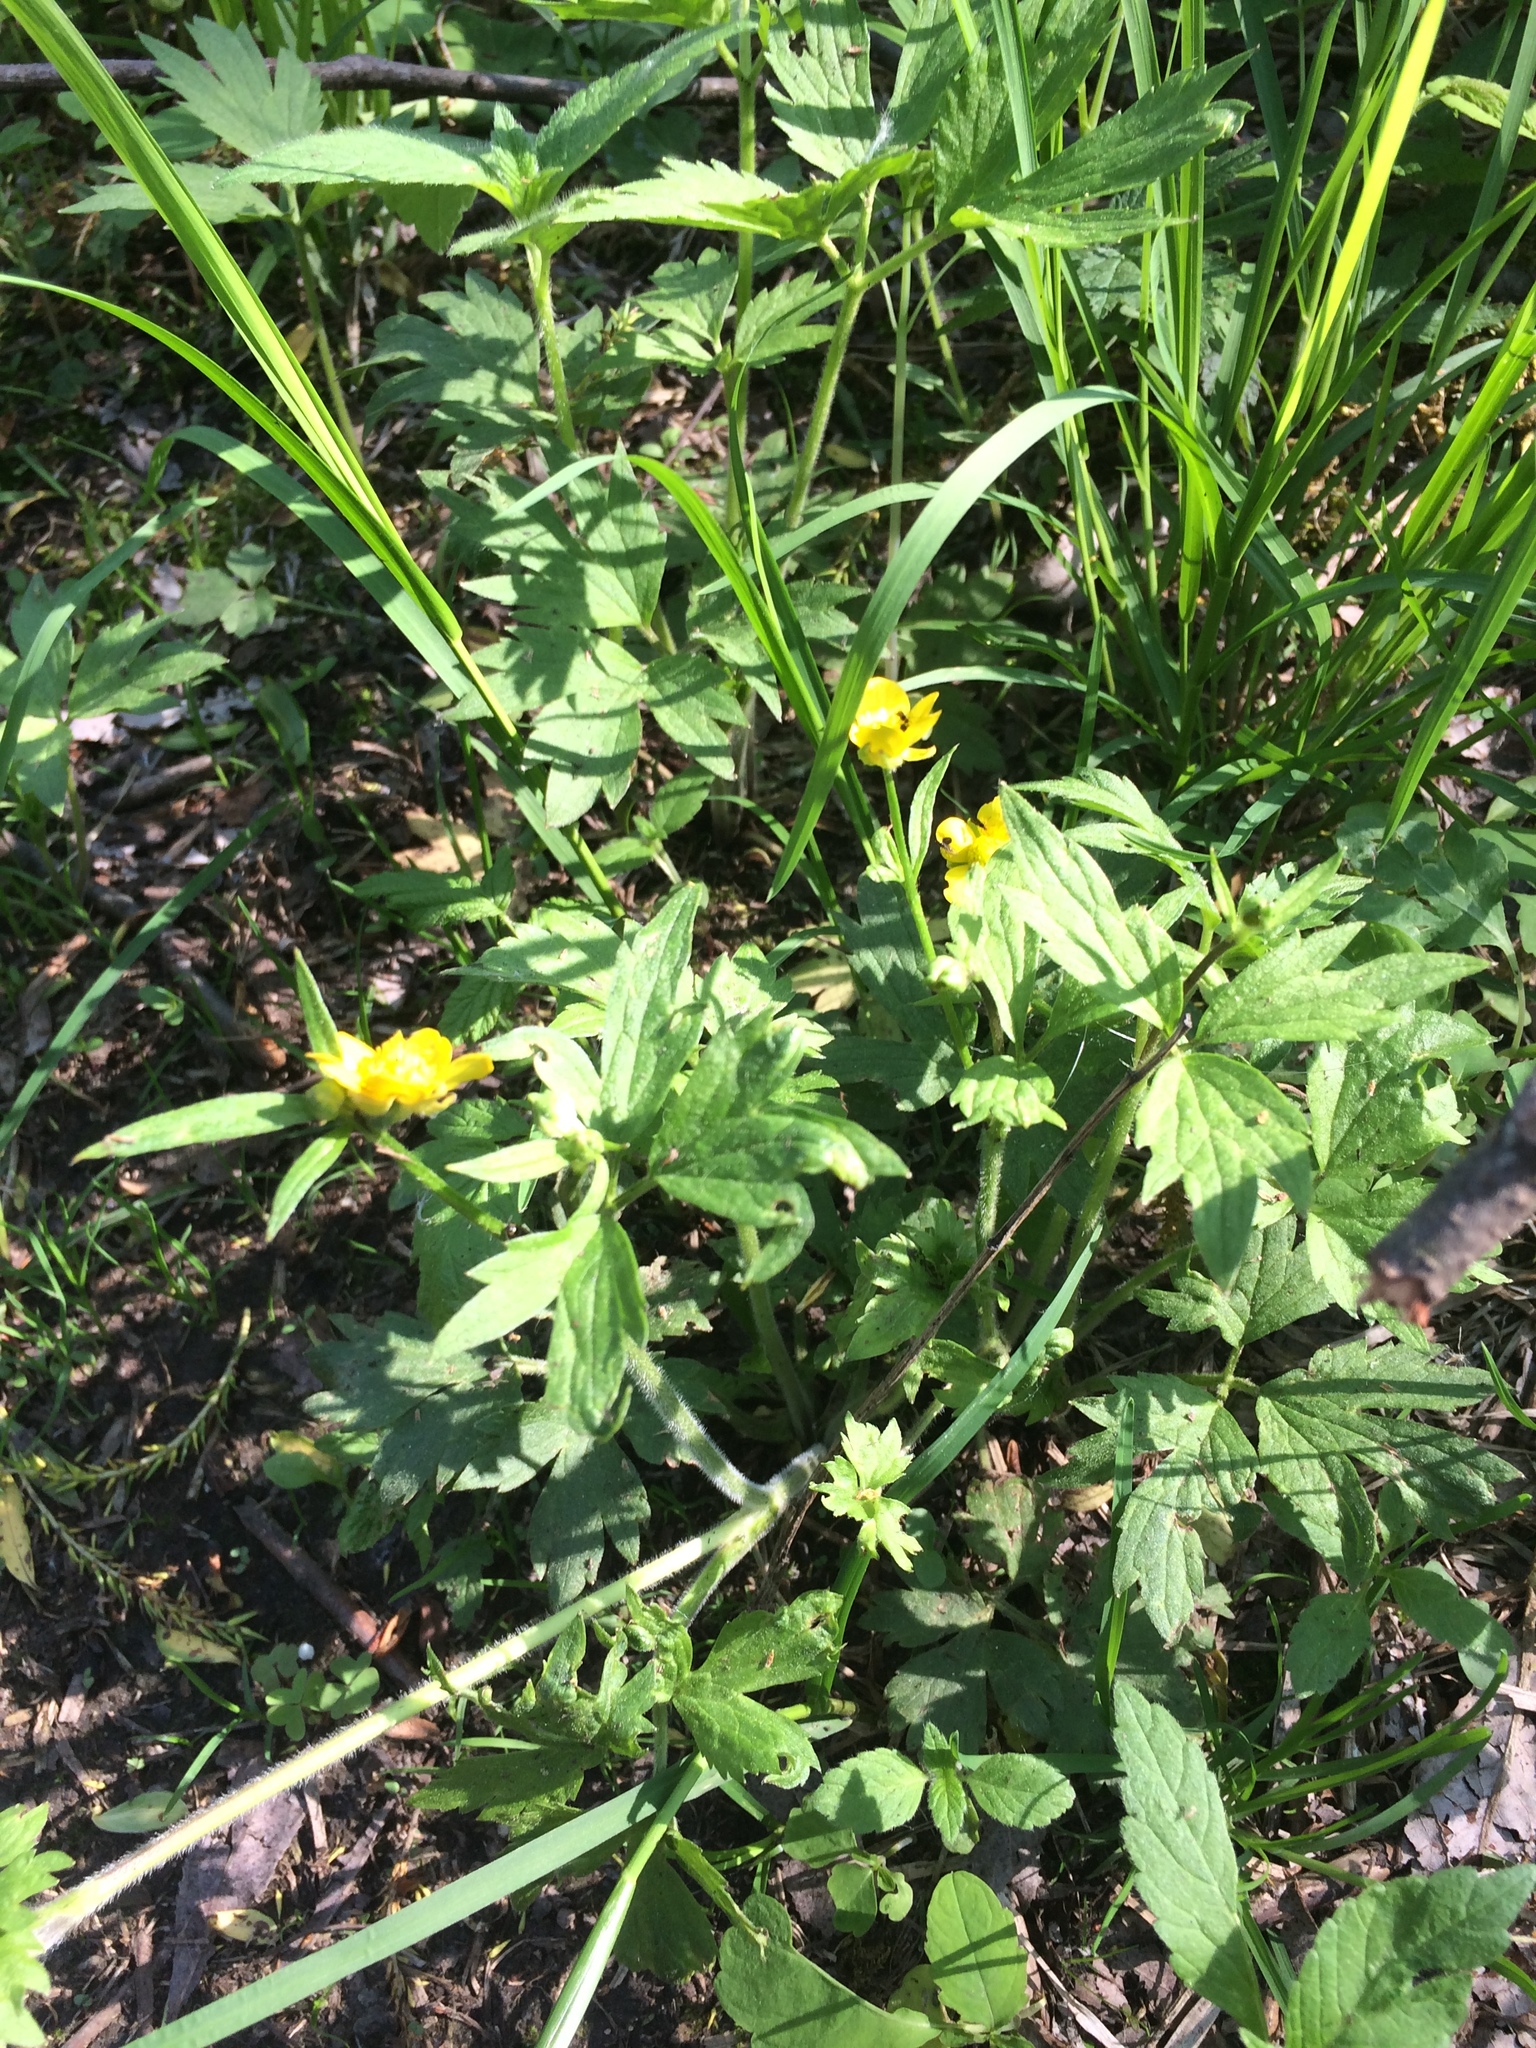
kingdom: Plantae
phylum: Tracheophyta
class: Magnoliopsida
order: Ranunculales
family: Ranunculaceae
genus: Ranunculus
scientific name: Ranunculus hispidus
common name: Bristly buttercup
